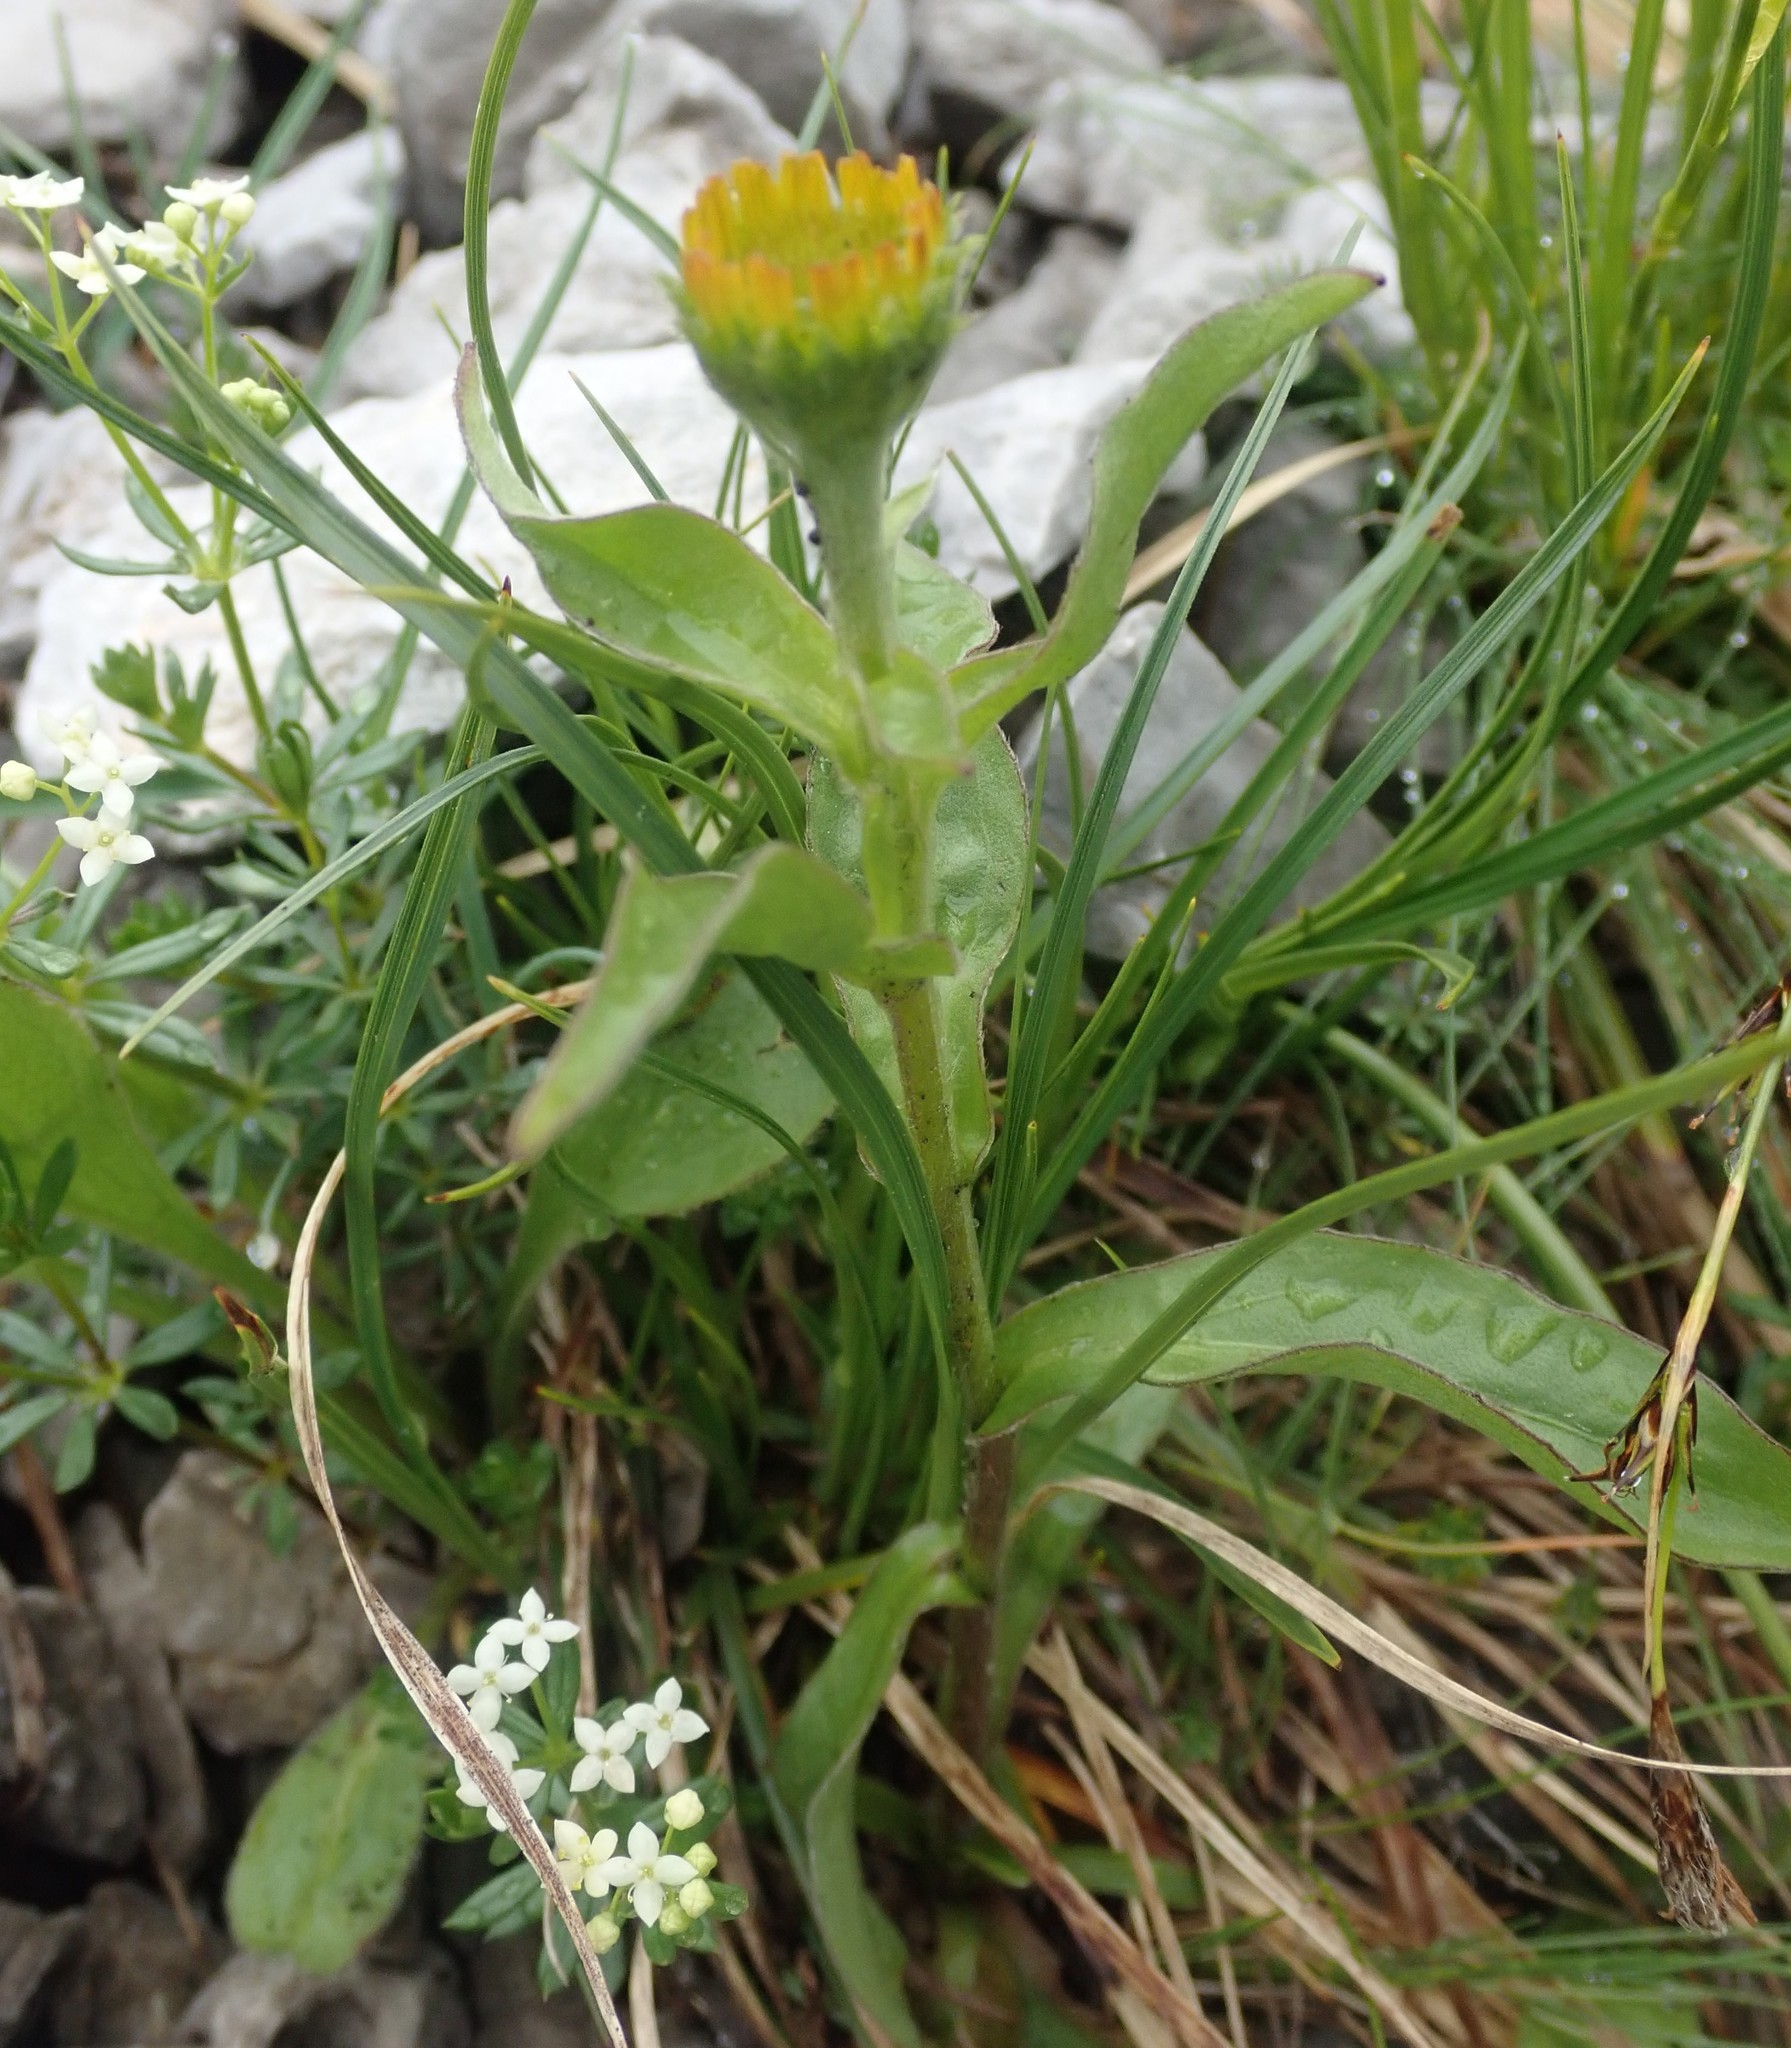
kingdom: Plantae
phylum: Tracheophyta
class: Magnoliopsida
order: Asterales
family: Asteraceae
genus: Buphthalmum
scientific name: Buphthalmum salicifolium
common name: Willow-leaved yellow-oxeye
